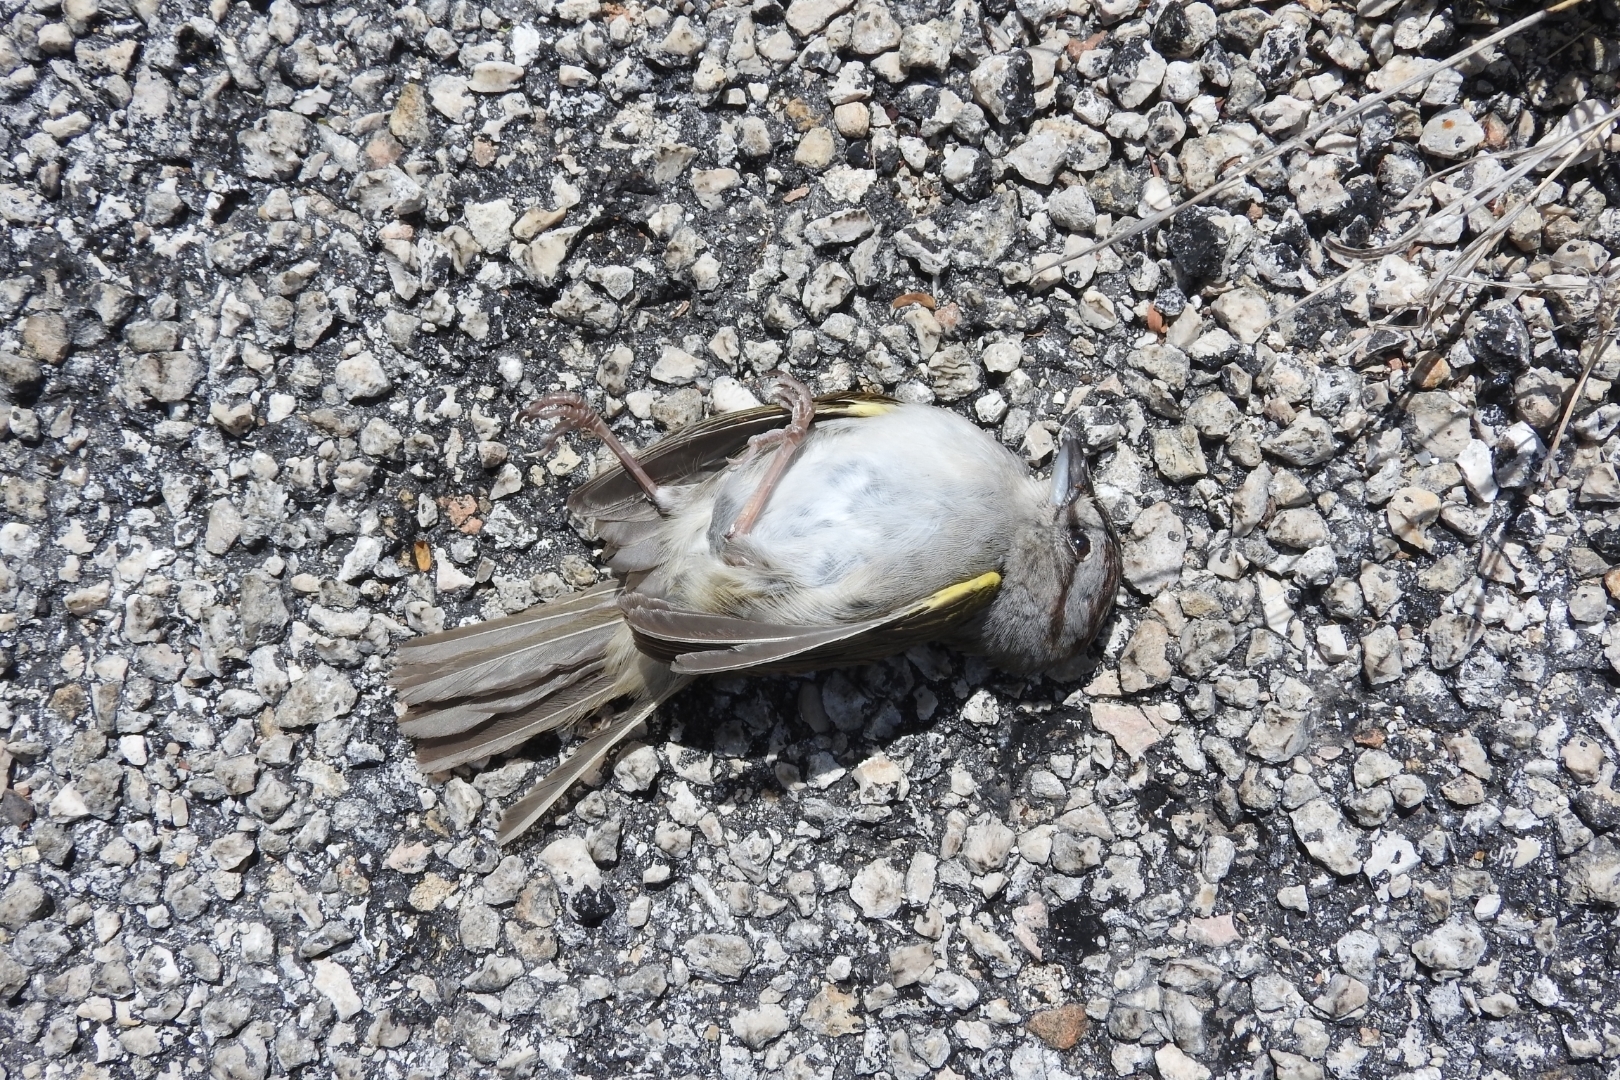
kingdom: Animalia
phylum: Chordata
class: Aves
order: Passeriformes
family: Passerellidae
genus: Arremonops
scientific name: Arremonops rufivirgatus
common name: Olive sparrow
